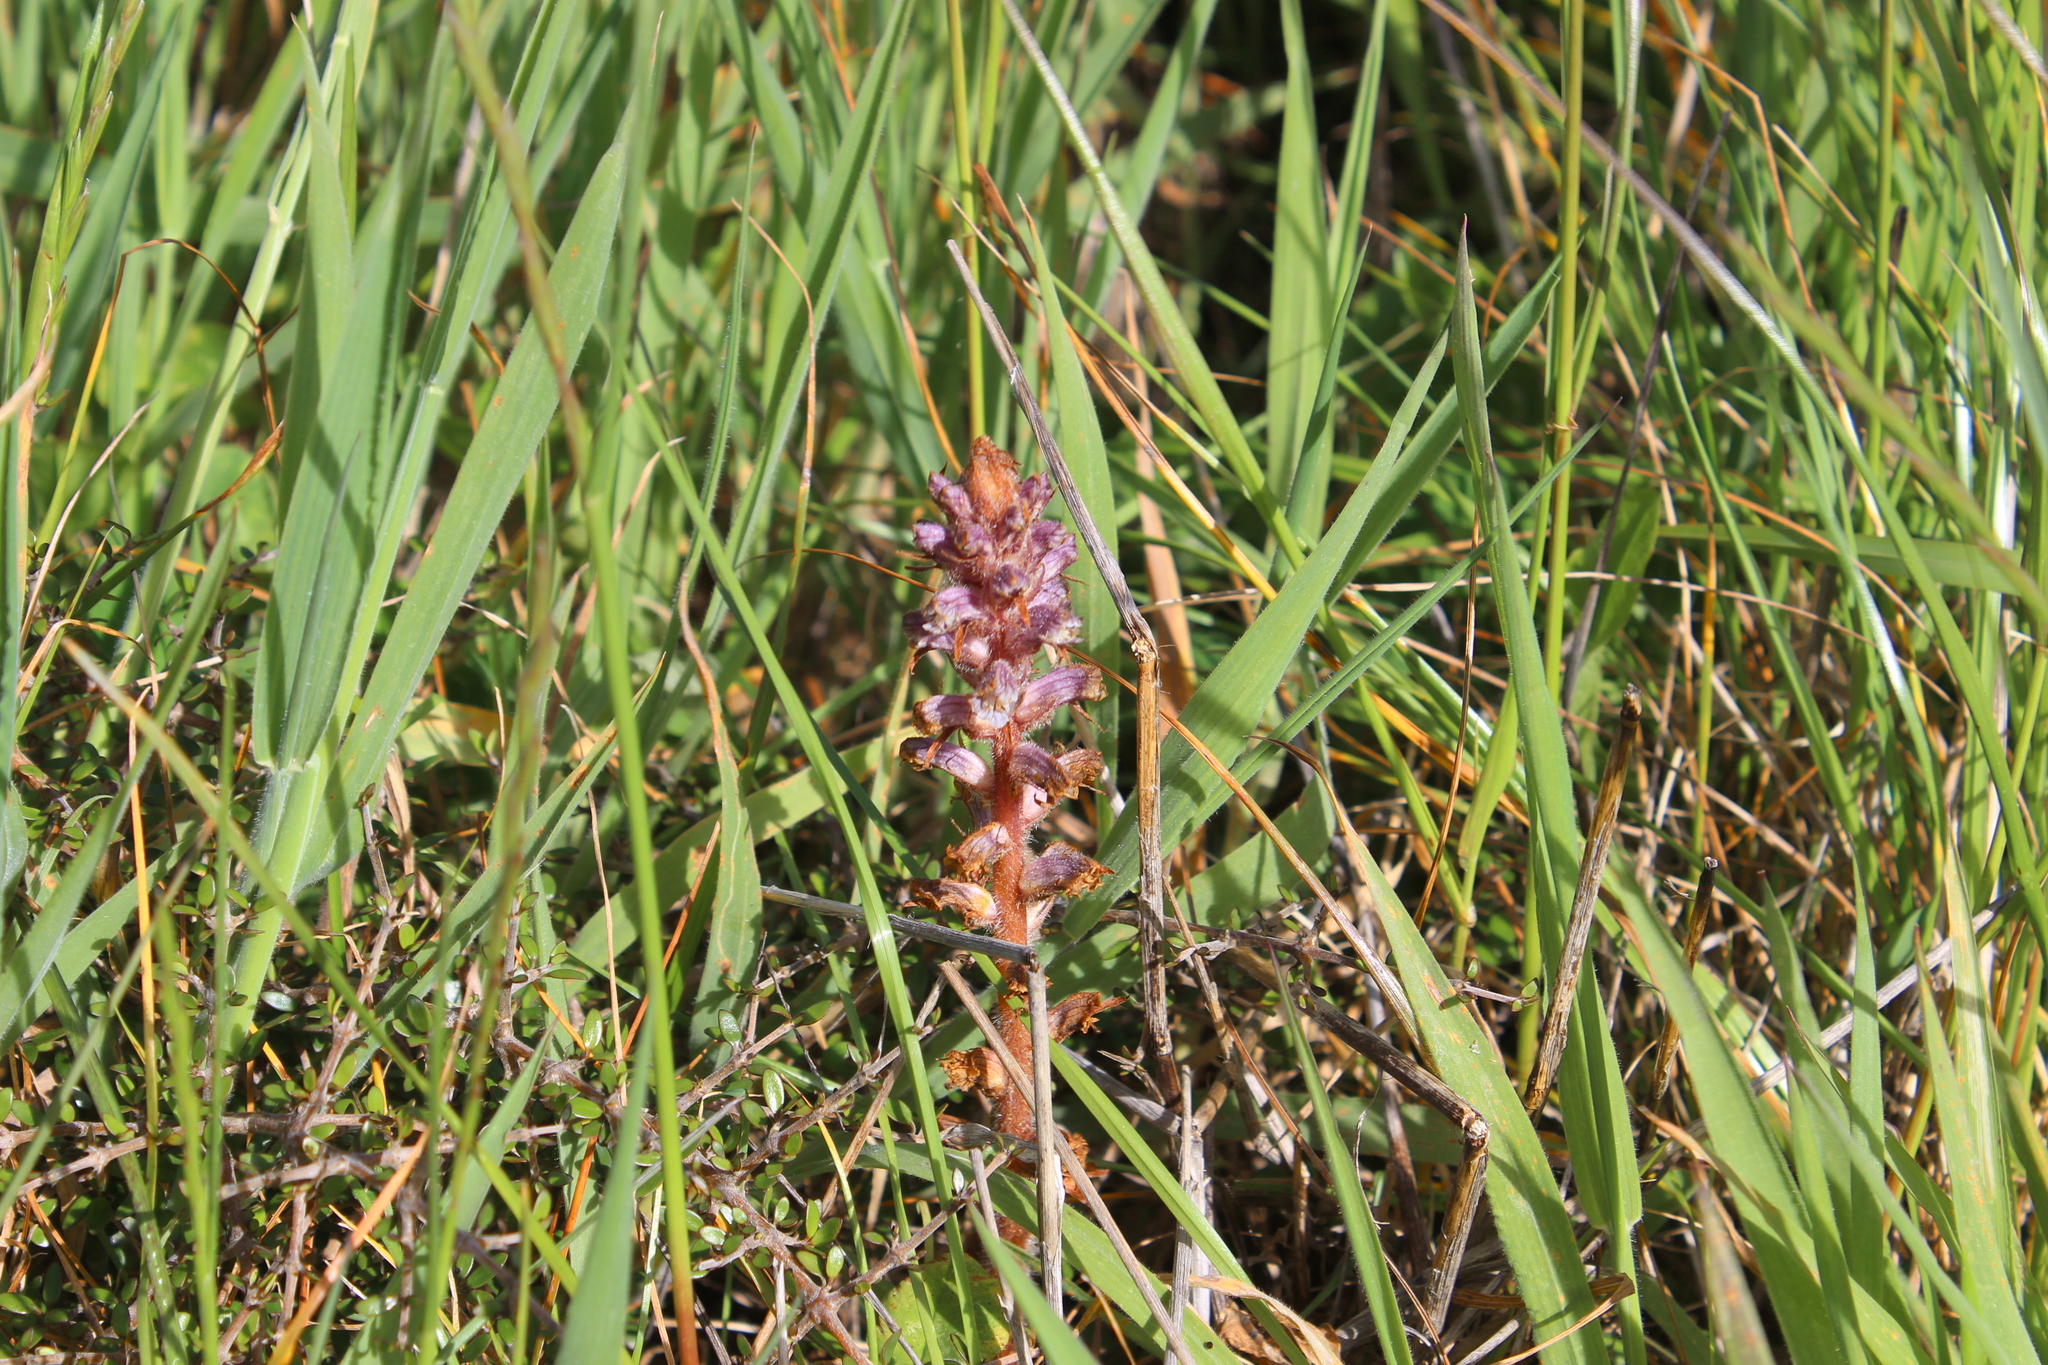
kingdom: Plantae
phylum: Tracheophyta
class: Magnoliopsida
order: Lamiales
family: Orobanchaceae
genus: Orobanche
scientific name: Orobanche minor
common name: Common broomrape
